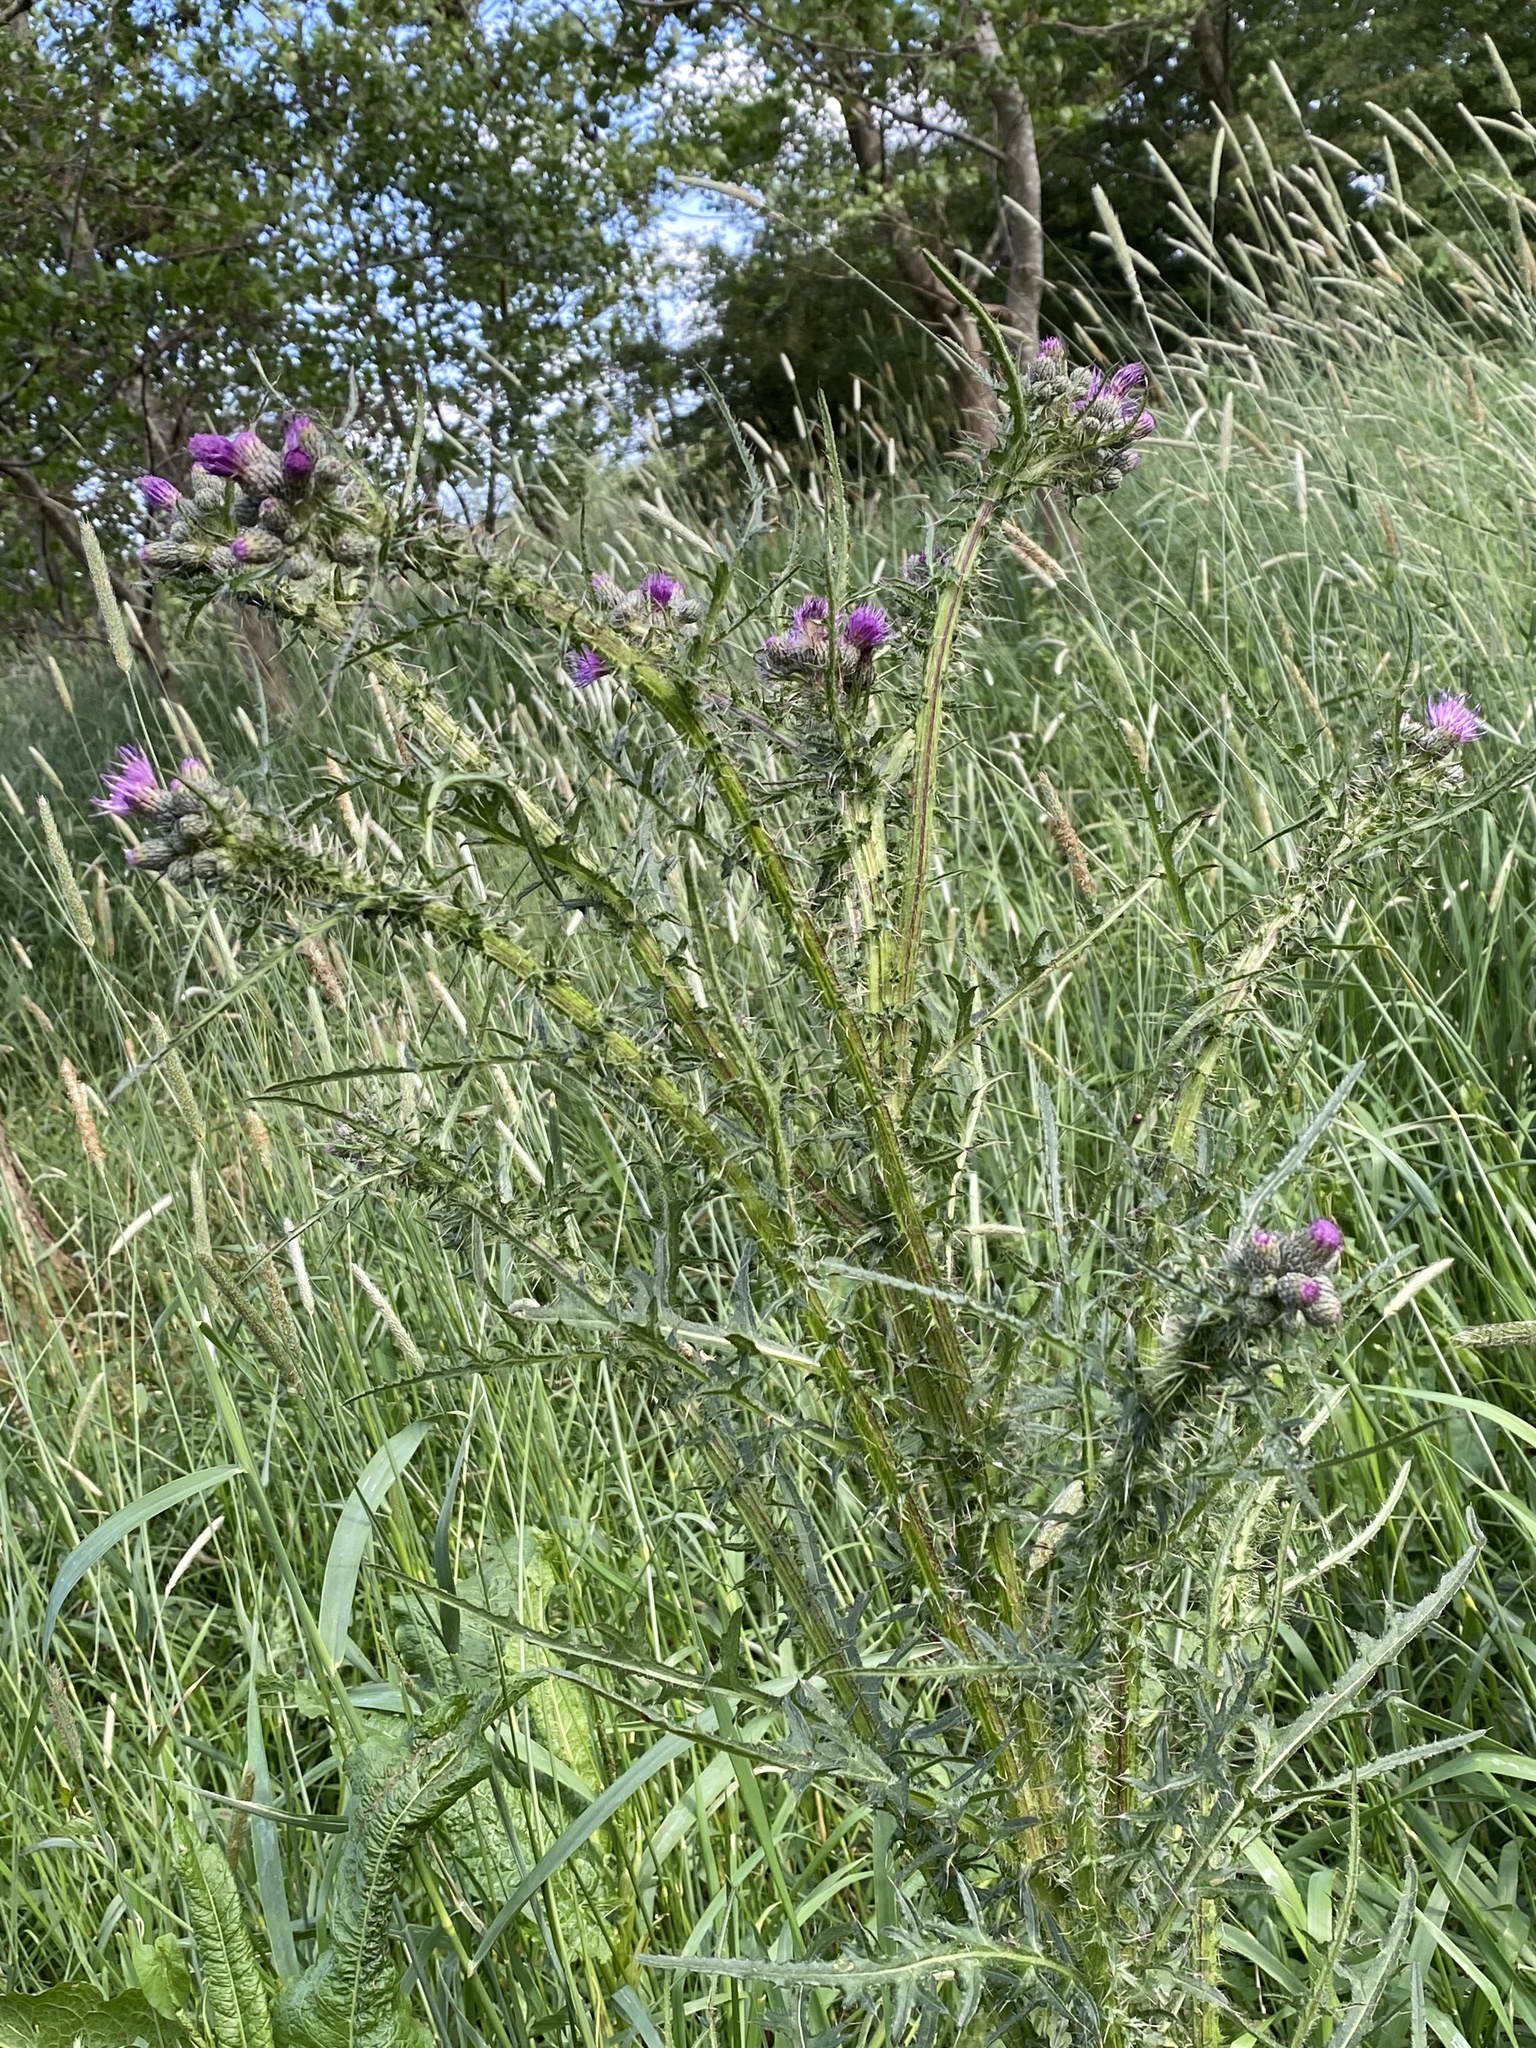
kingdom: Plantae
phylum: Tracheophyta
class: Magnoliopsida
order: Asterales
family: Asteraceae
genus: Cirsium
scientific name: Cirsium palustre
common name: Marsh thistle
